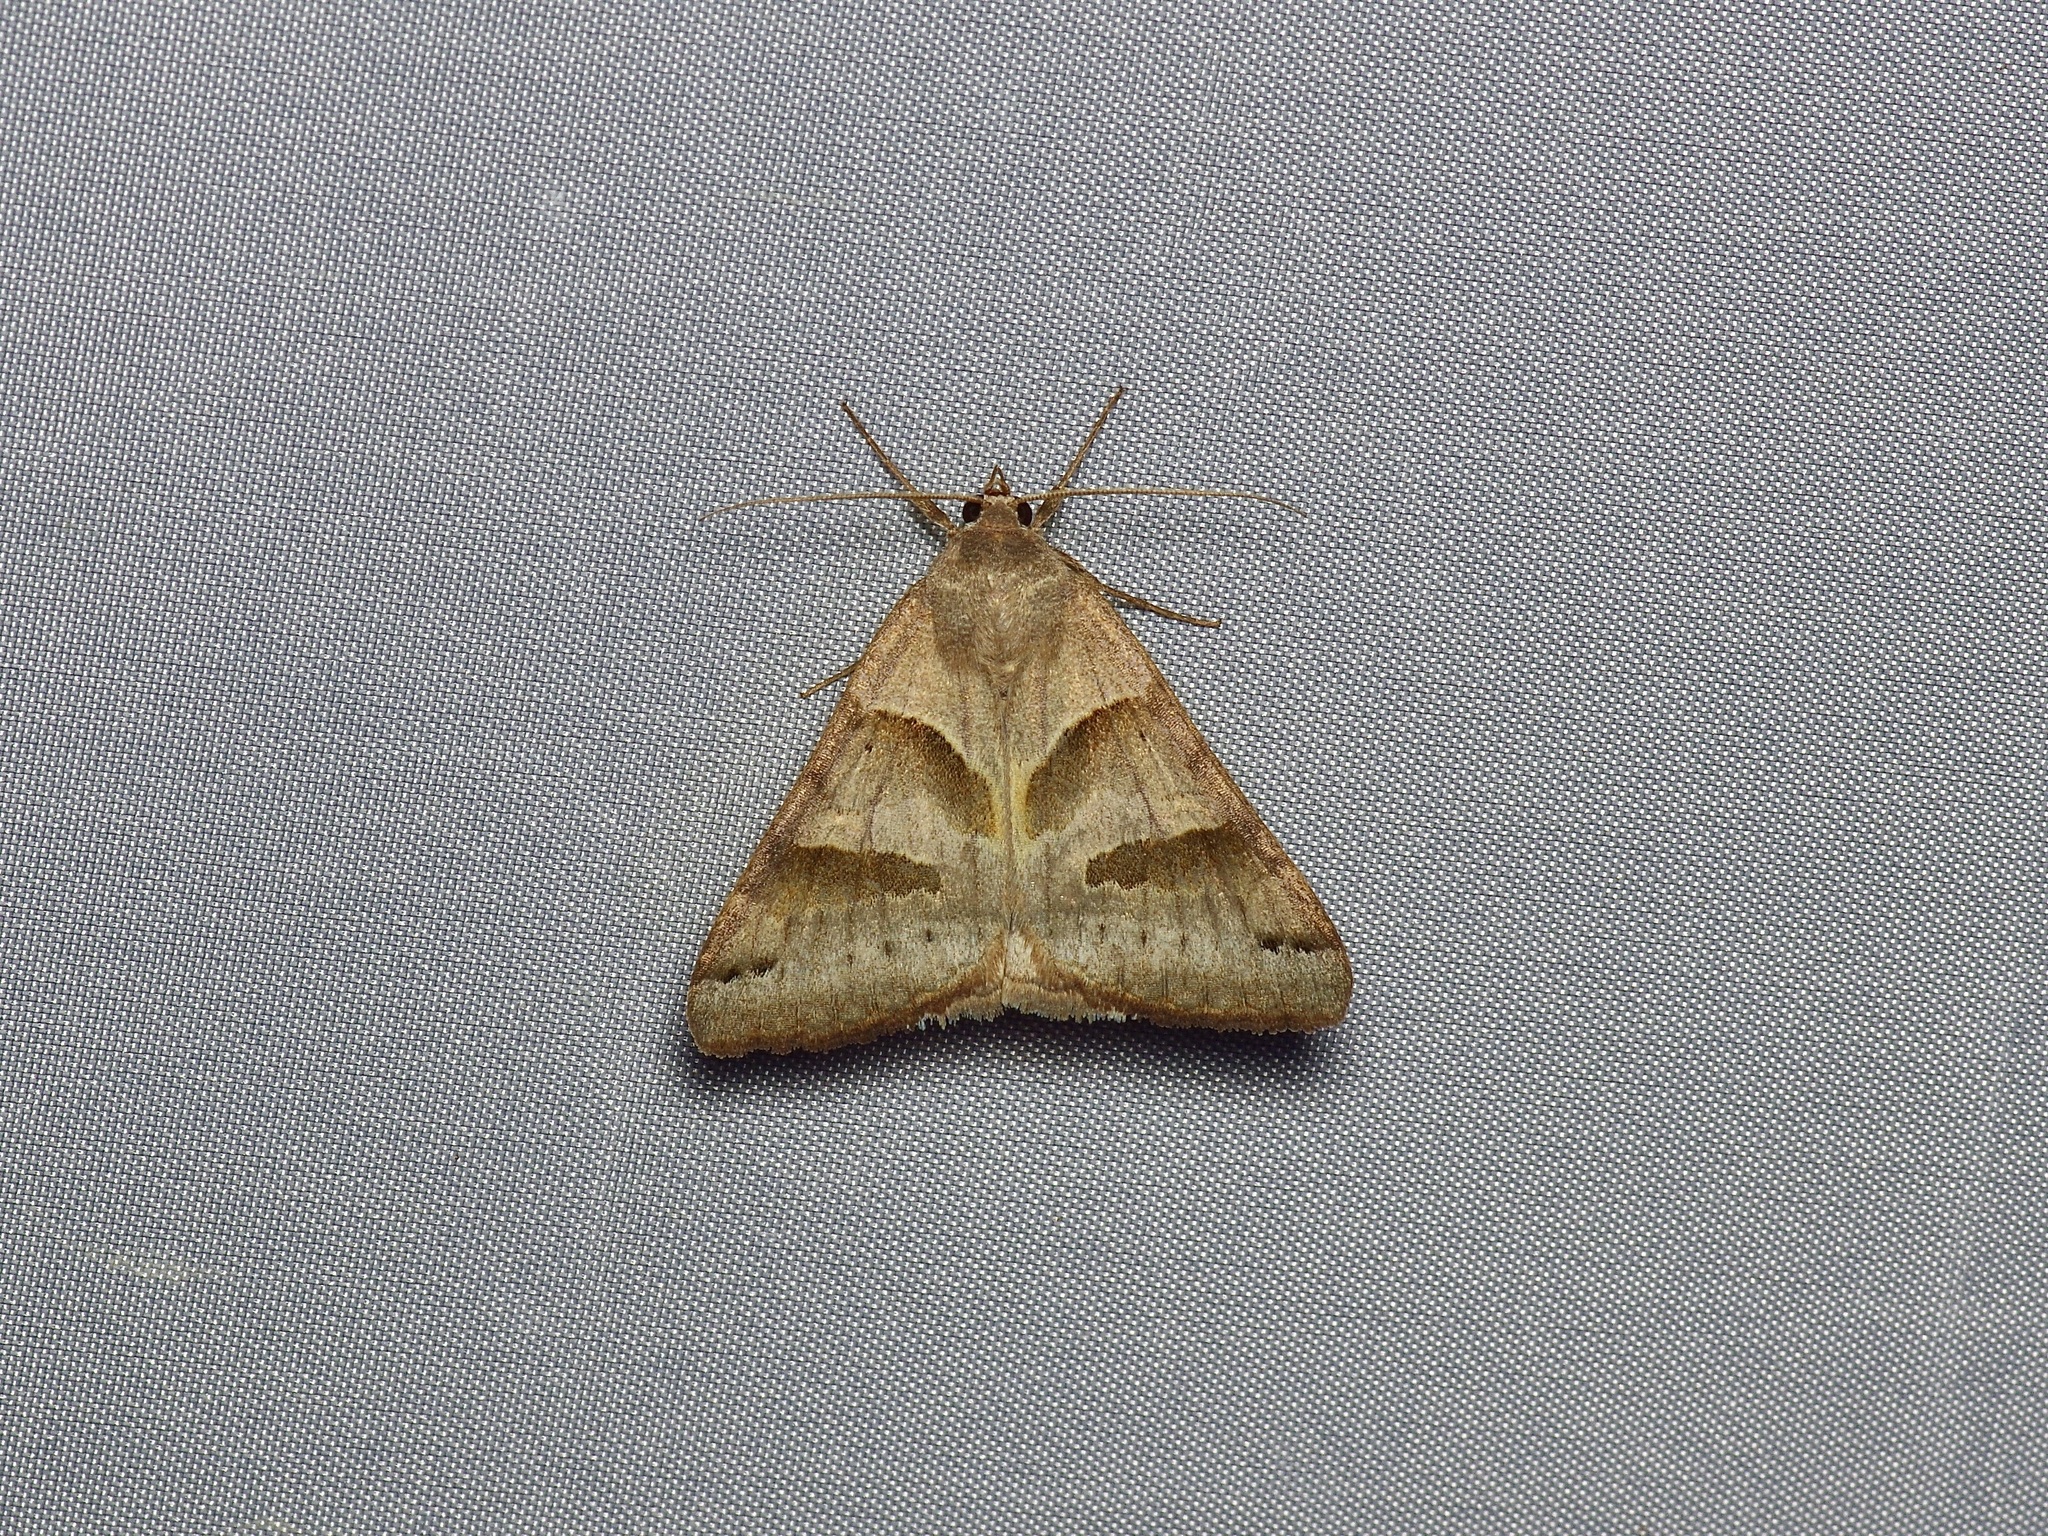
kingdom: Animalia
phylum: Arthropoda
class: Insecta
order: Lepidoptera
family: Erebidae
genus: Caenurgina
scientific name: Caenurgina erechtea
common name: Forage looper moth
